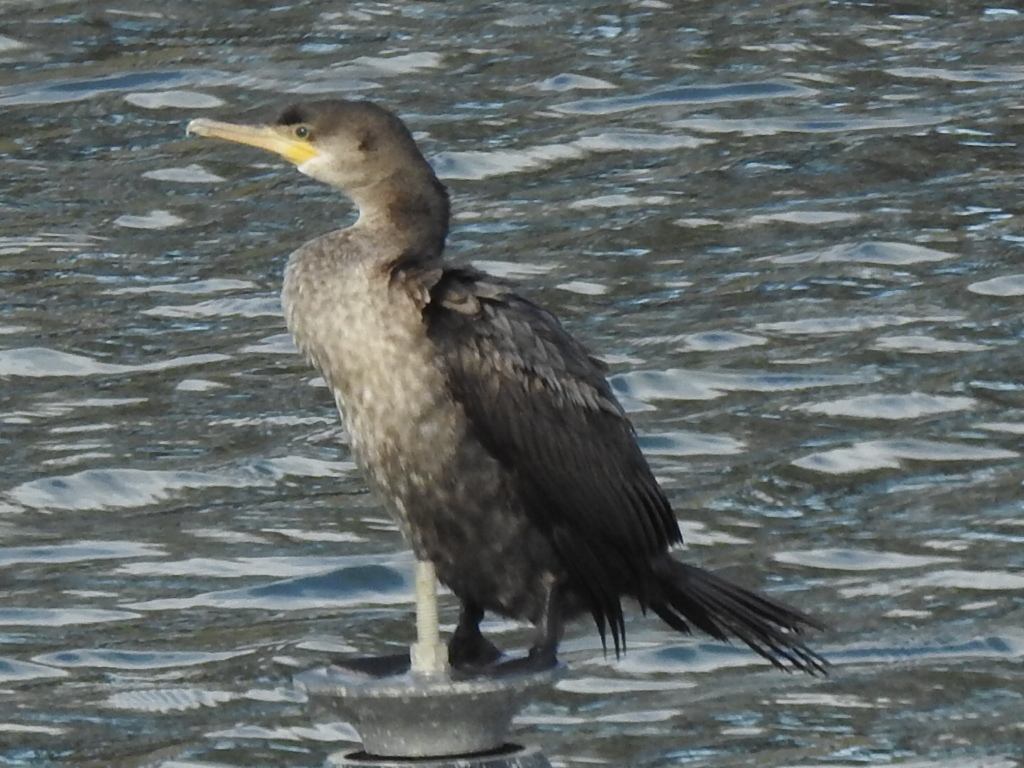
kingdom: Animalia
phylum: Chordata
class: Aves
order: Suliformes
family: Phalacrocoracidae
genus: Phalacrocorax
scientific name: Phalacrocorax brasilianus
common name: Neotropic cormorant
